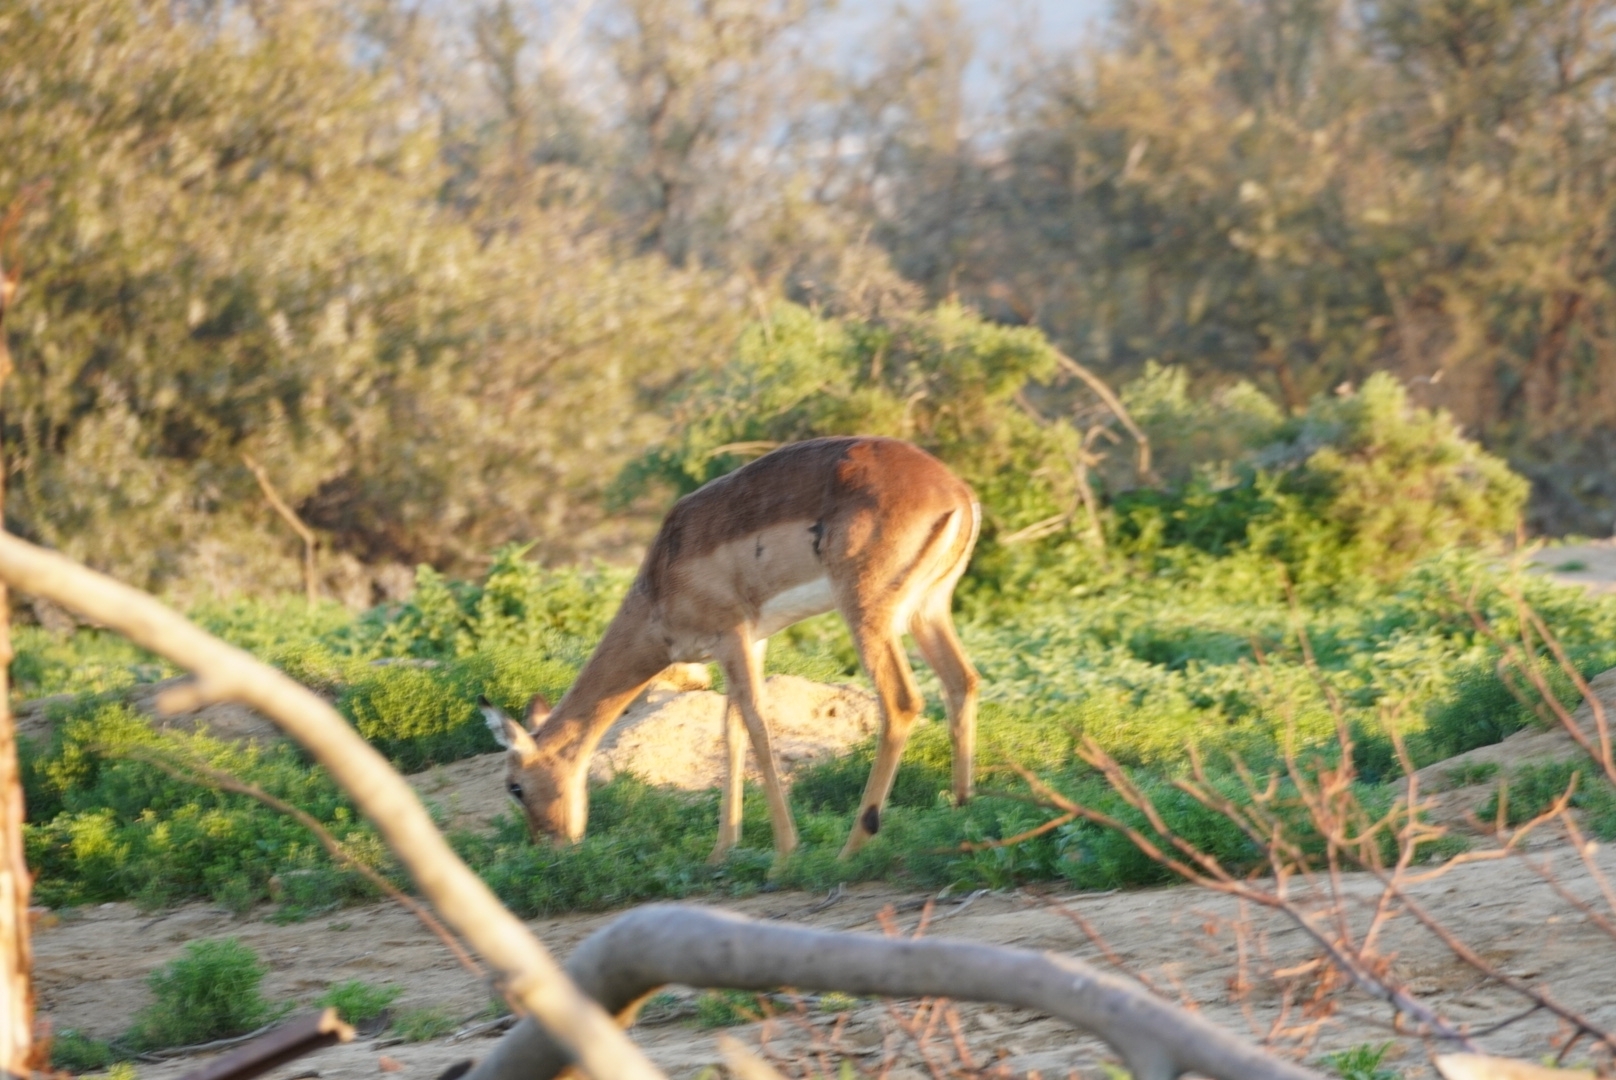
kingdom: Animalia
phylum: Chordata
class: Mammalia
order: Artiodactyla
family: Bovidae
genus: Aepyceros
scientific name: Aepyceros melampus
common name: Impala
